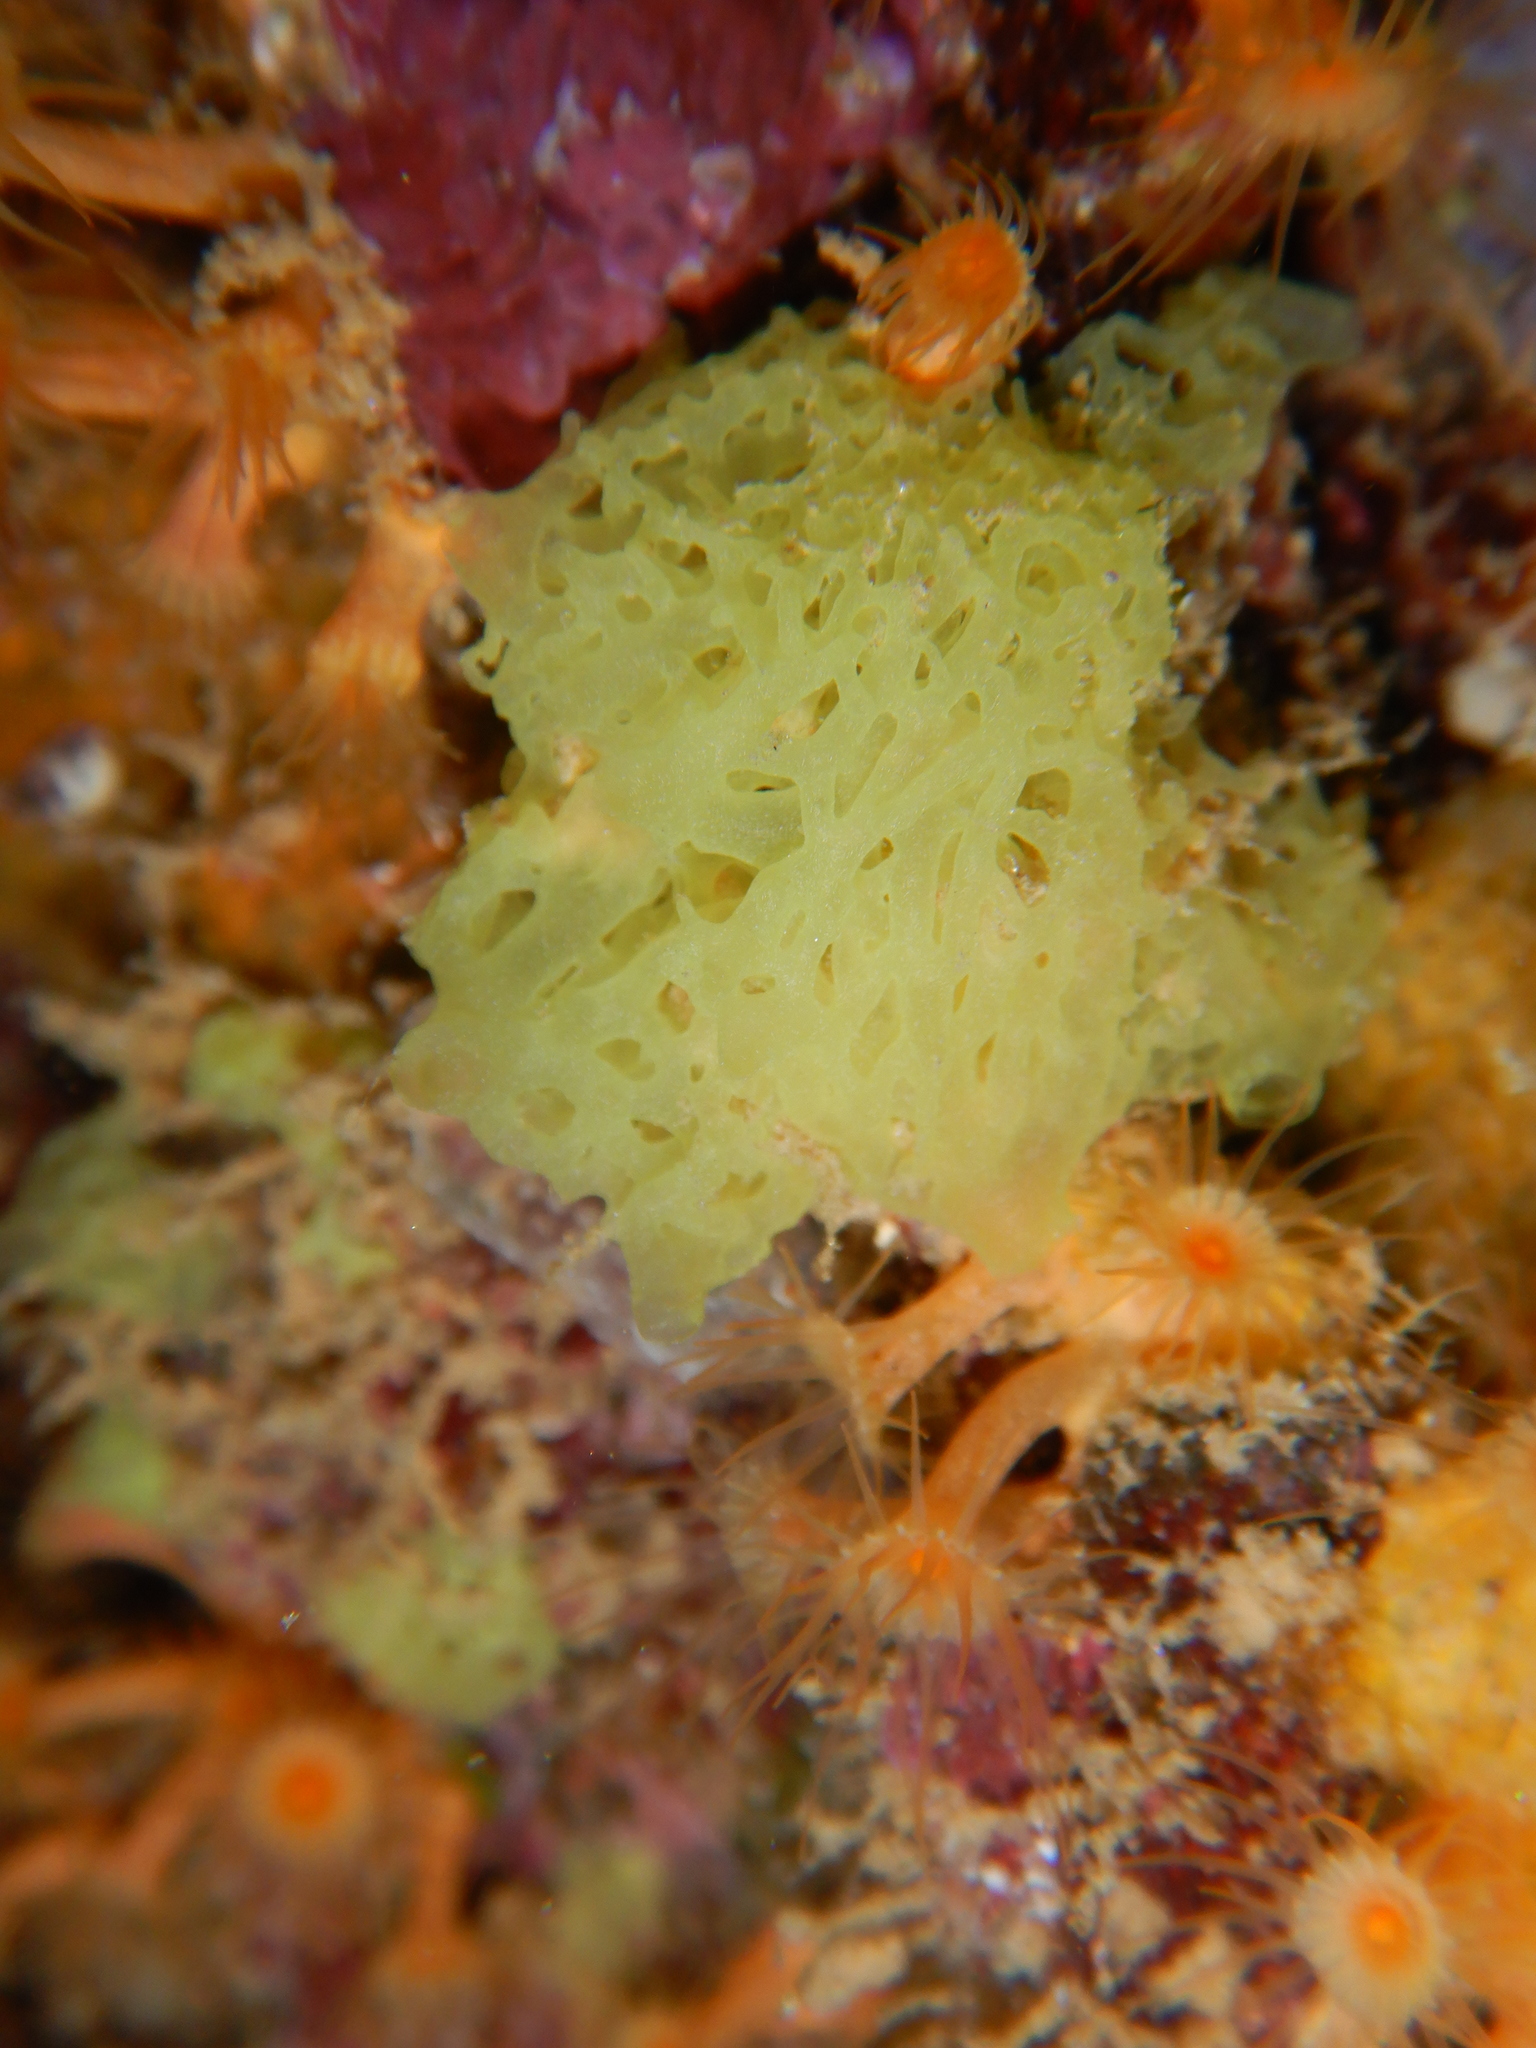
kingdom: Animalia
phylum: Porifera
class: Calcarea
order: Clathrinida
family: Clathrinidae
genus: Clathrina
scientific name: Clathrina clathrus
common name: Yellow clathrina
